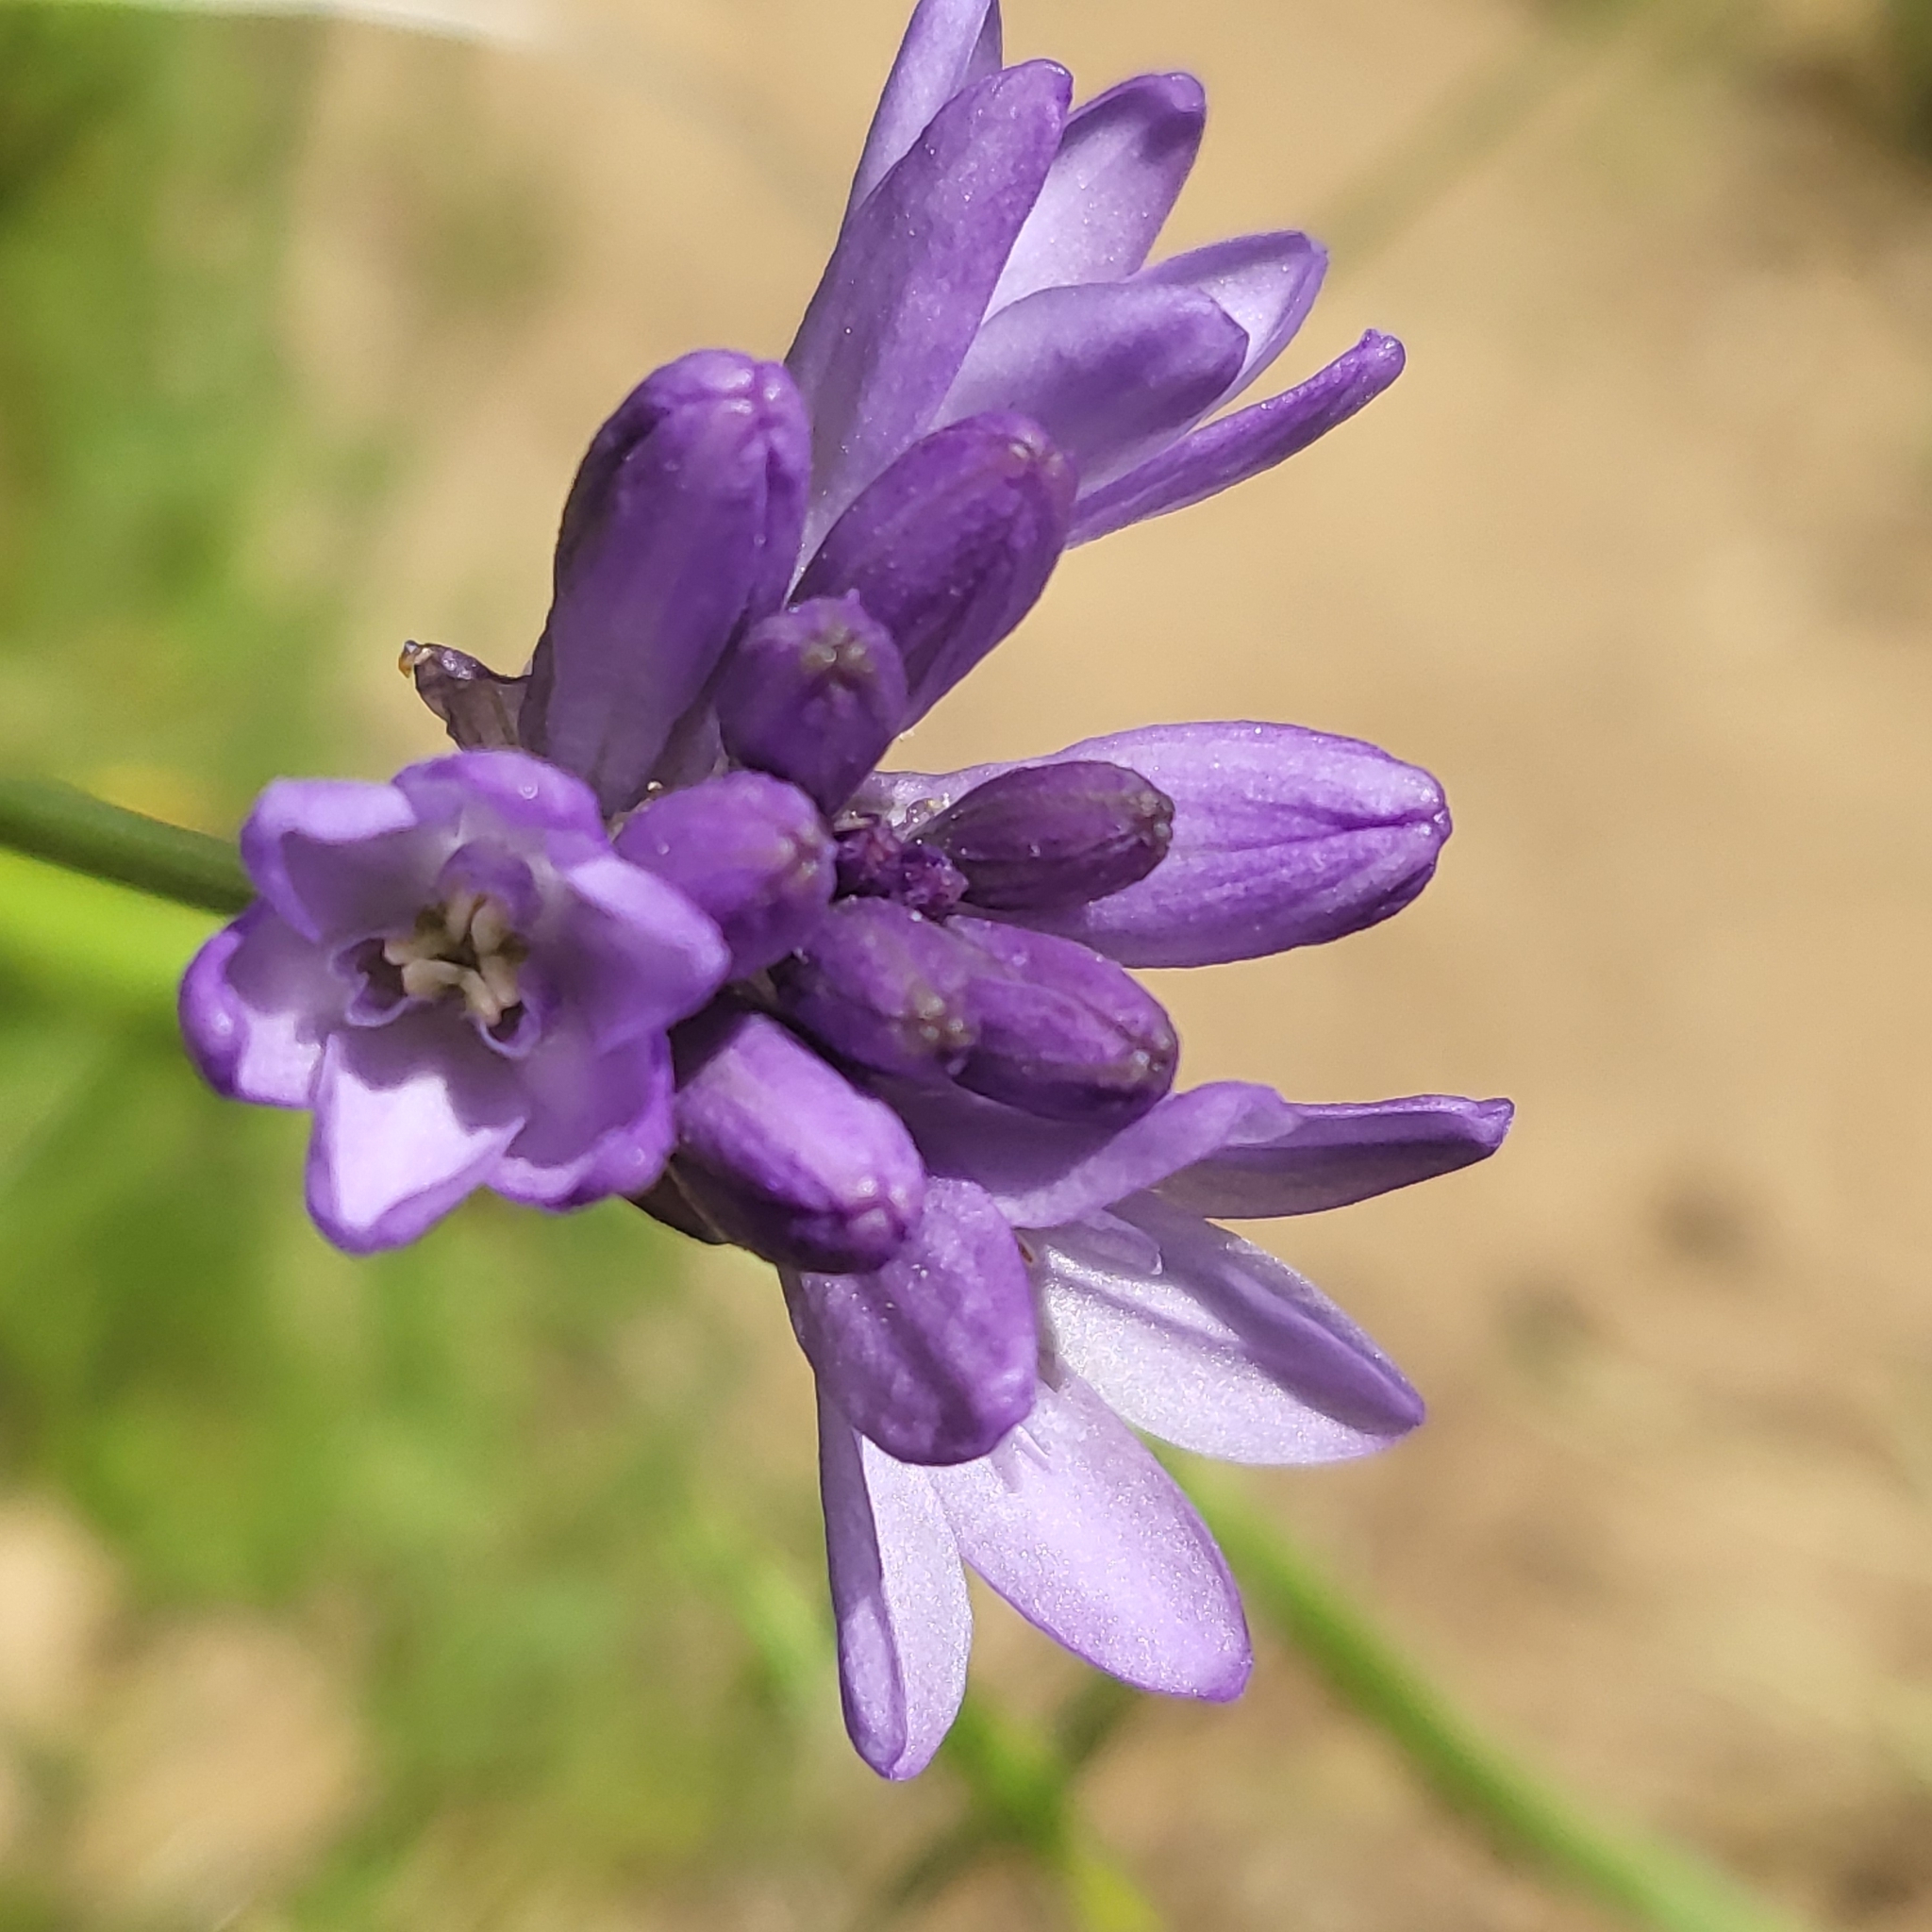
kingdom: Plantae
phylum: Tracheophyta
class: Liliopsida
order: Asparagales
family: Asparagaceae
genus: Dichelostemma
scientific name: Dichelostemma congestum
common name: Fork-tooth ookow
